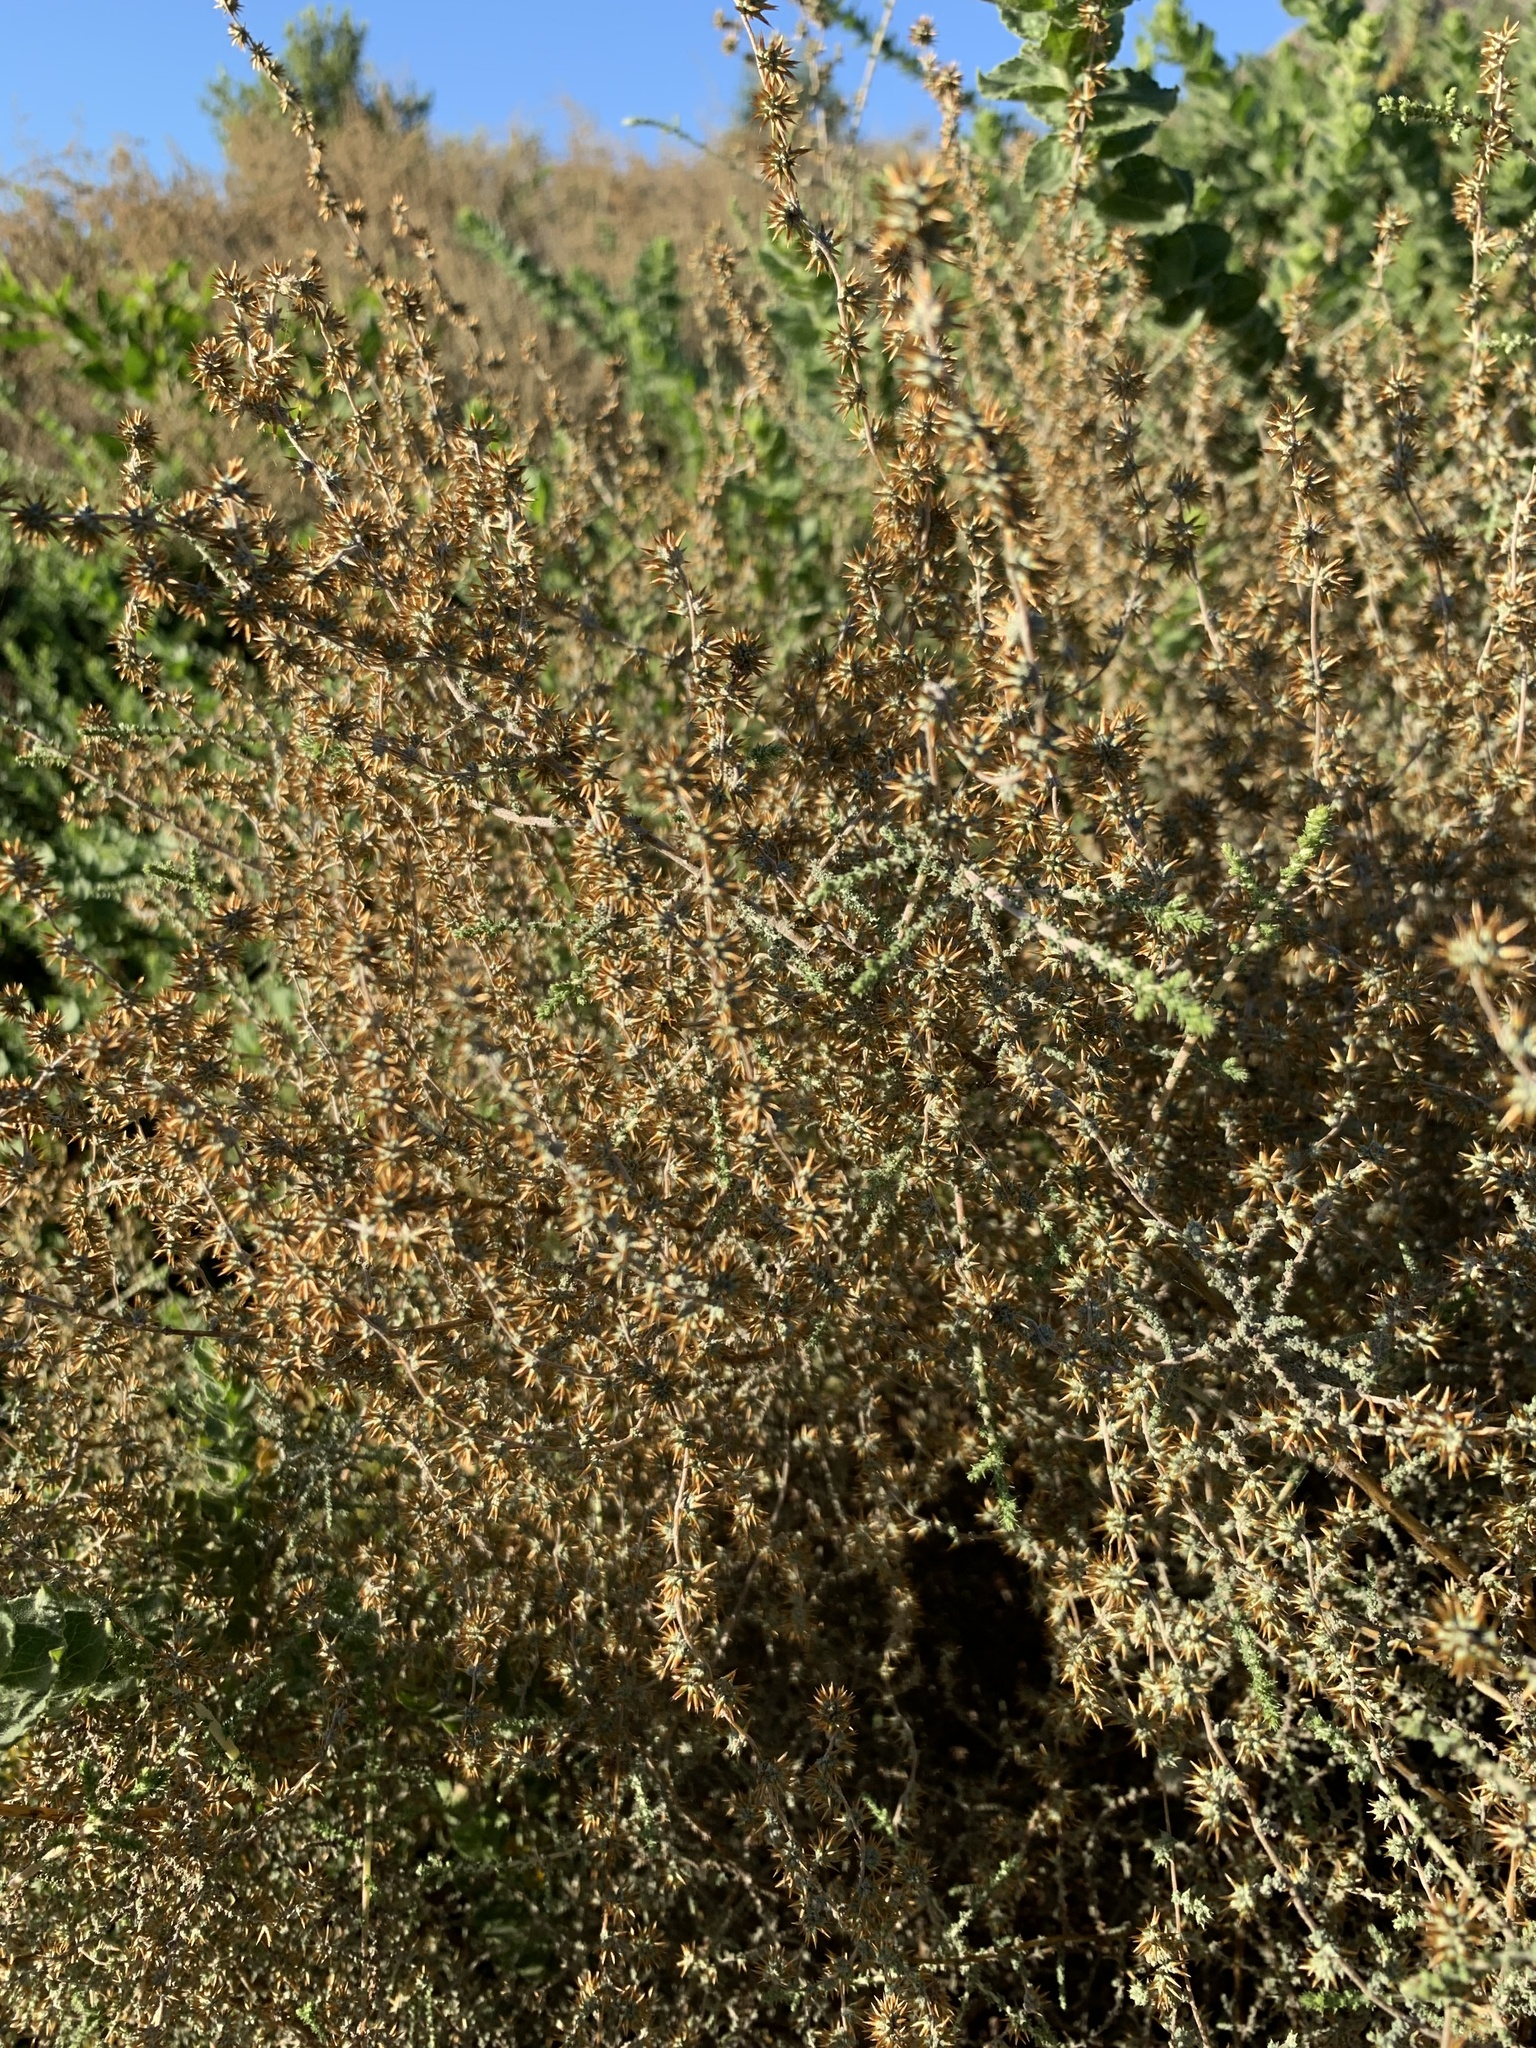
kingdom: Plantae
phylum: Tracheophyta
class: Magnoliopsida
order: Asterales
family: Asteraceae
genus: Seriphium
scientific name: Seriphium plumosum
